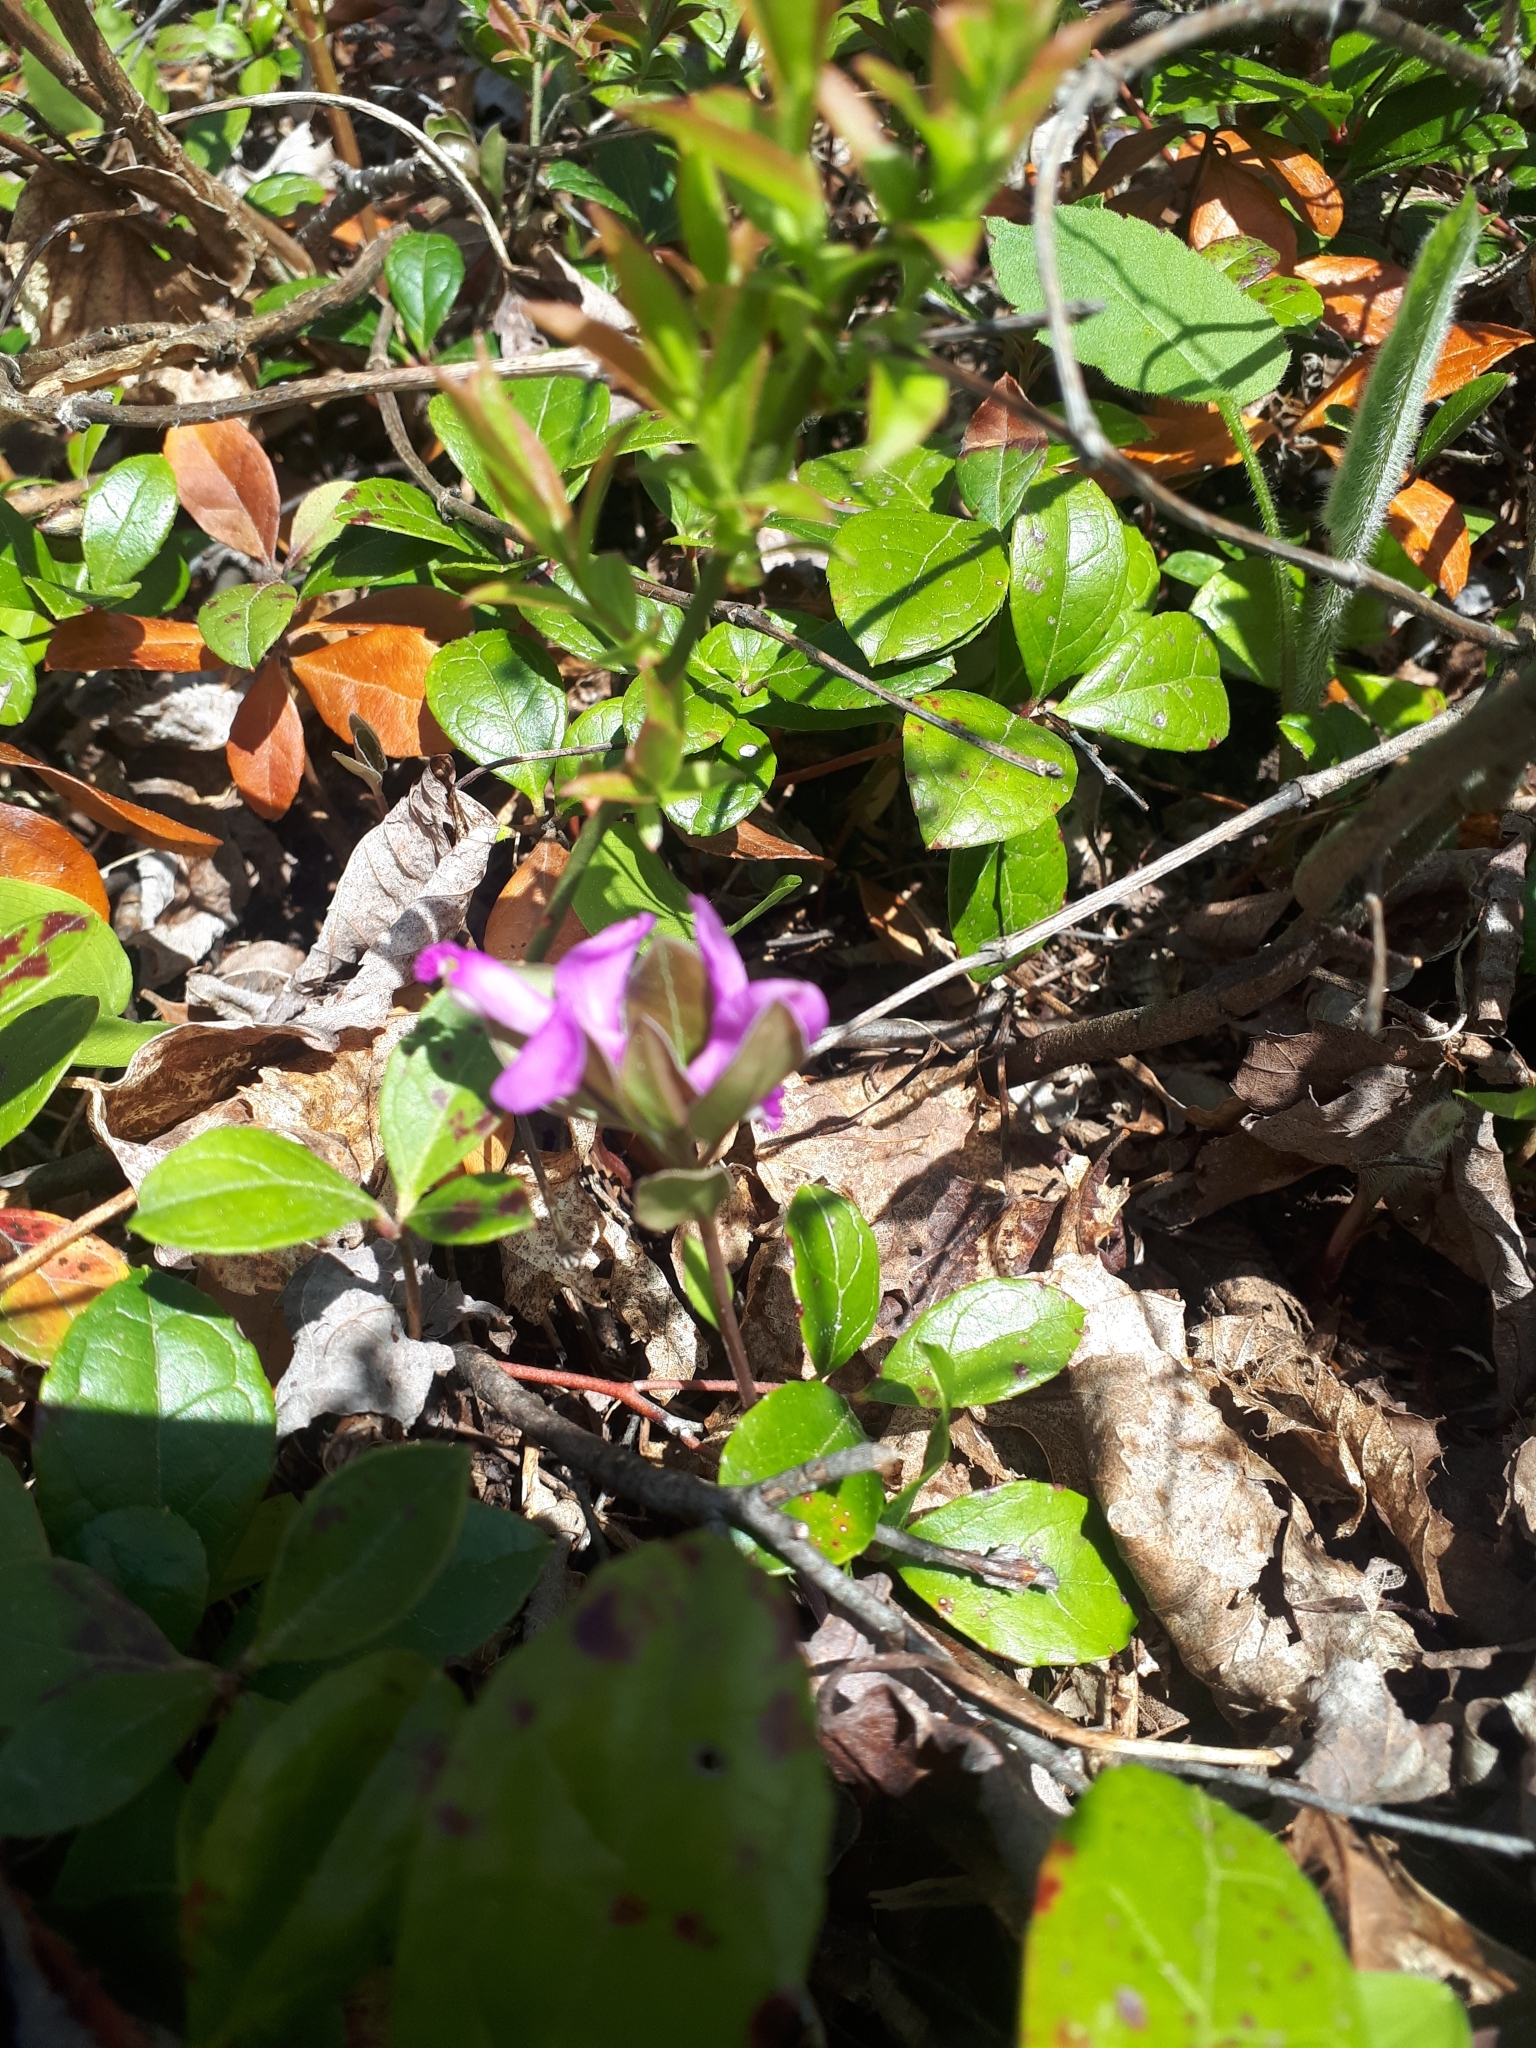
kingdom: Plantae
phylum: Tracheophyta
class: Magnoliopsida
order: Fabales
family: Polygalaceae
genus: Polygaloides
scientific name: Polygaloides paucifolia
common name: Bird-on-the-wing
